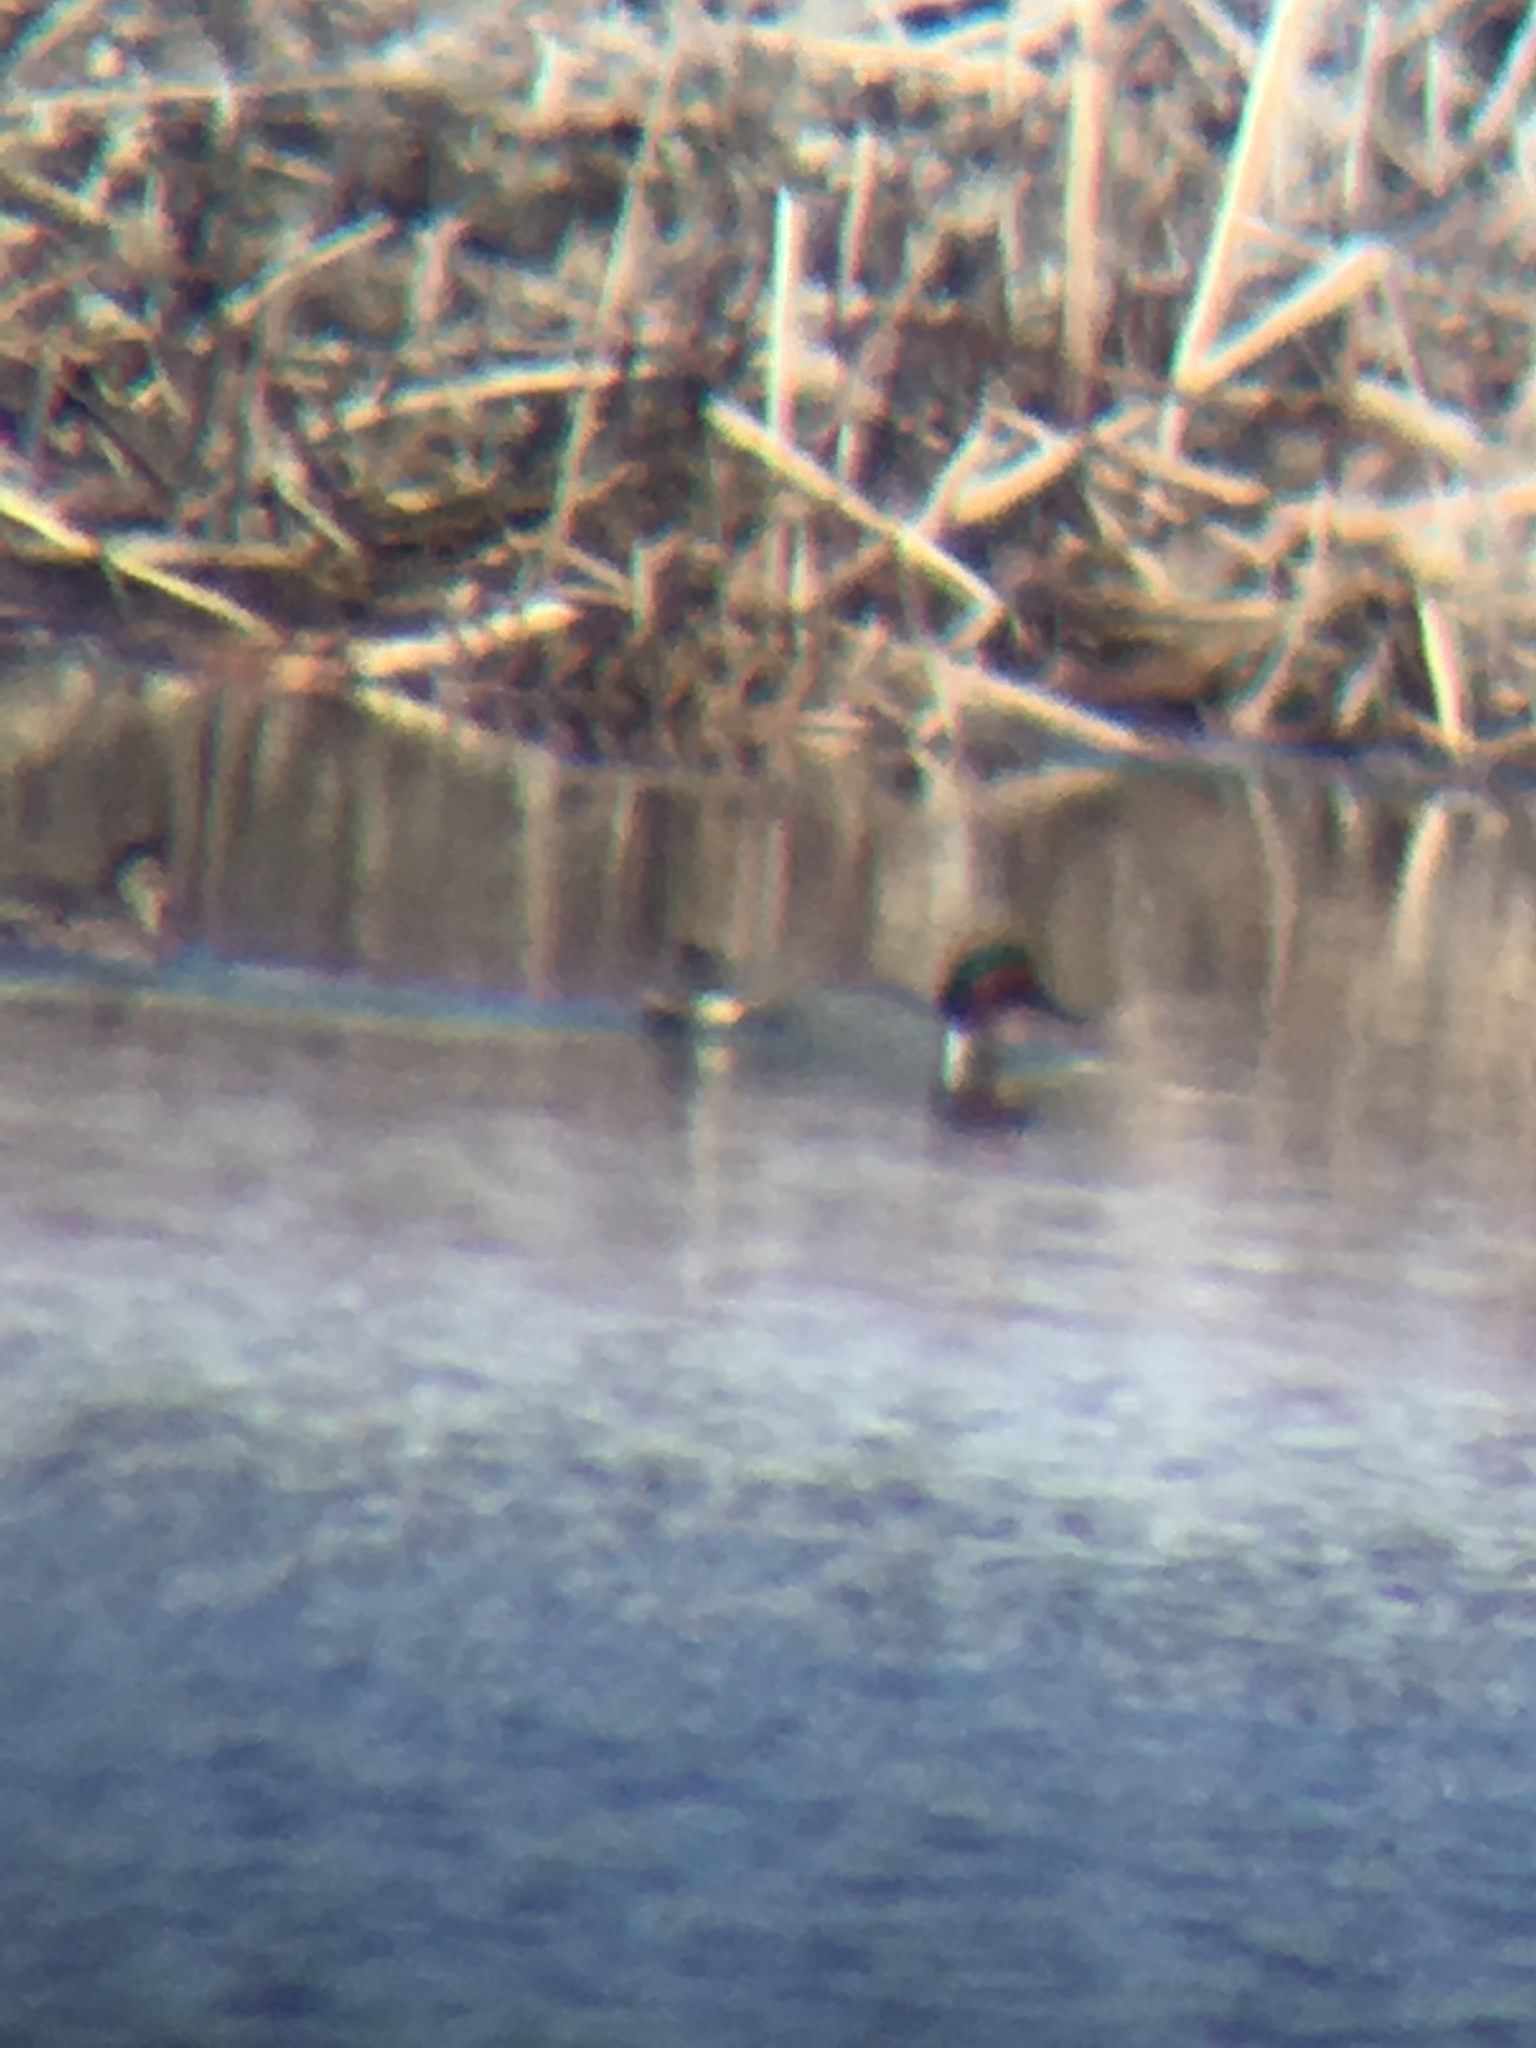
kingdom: Animalia
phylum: Chordata
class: Aves
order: Anseriformes
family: Anatidae
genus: Anas
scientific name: Anas crecca
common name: Eurasian teal
